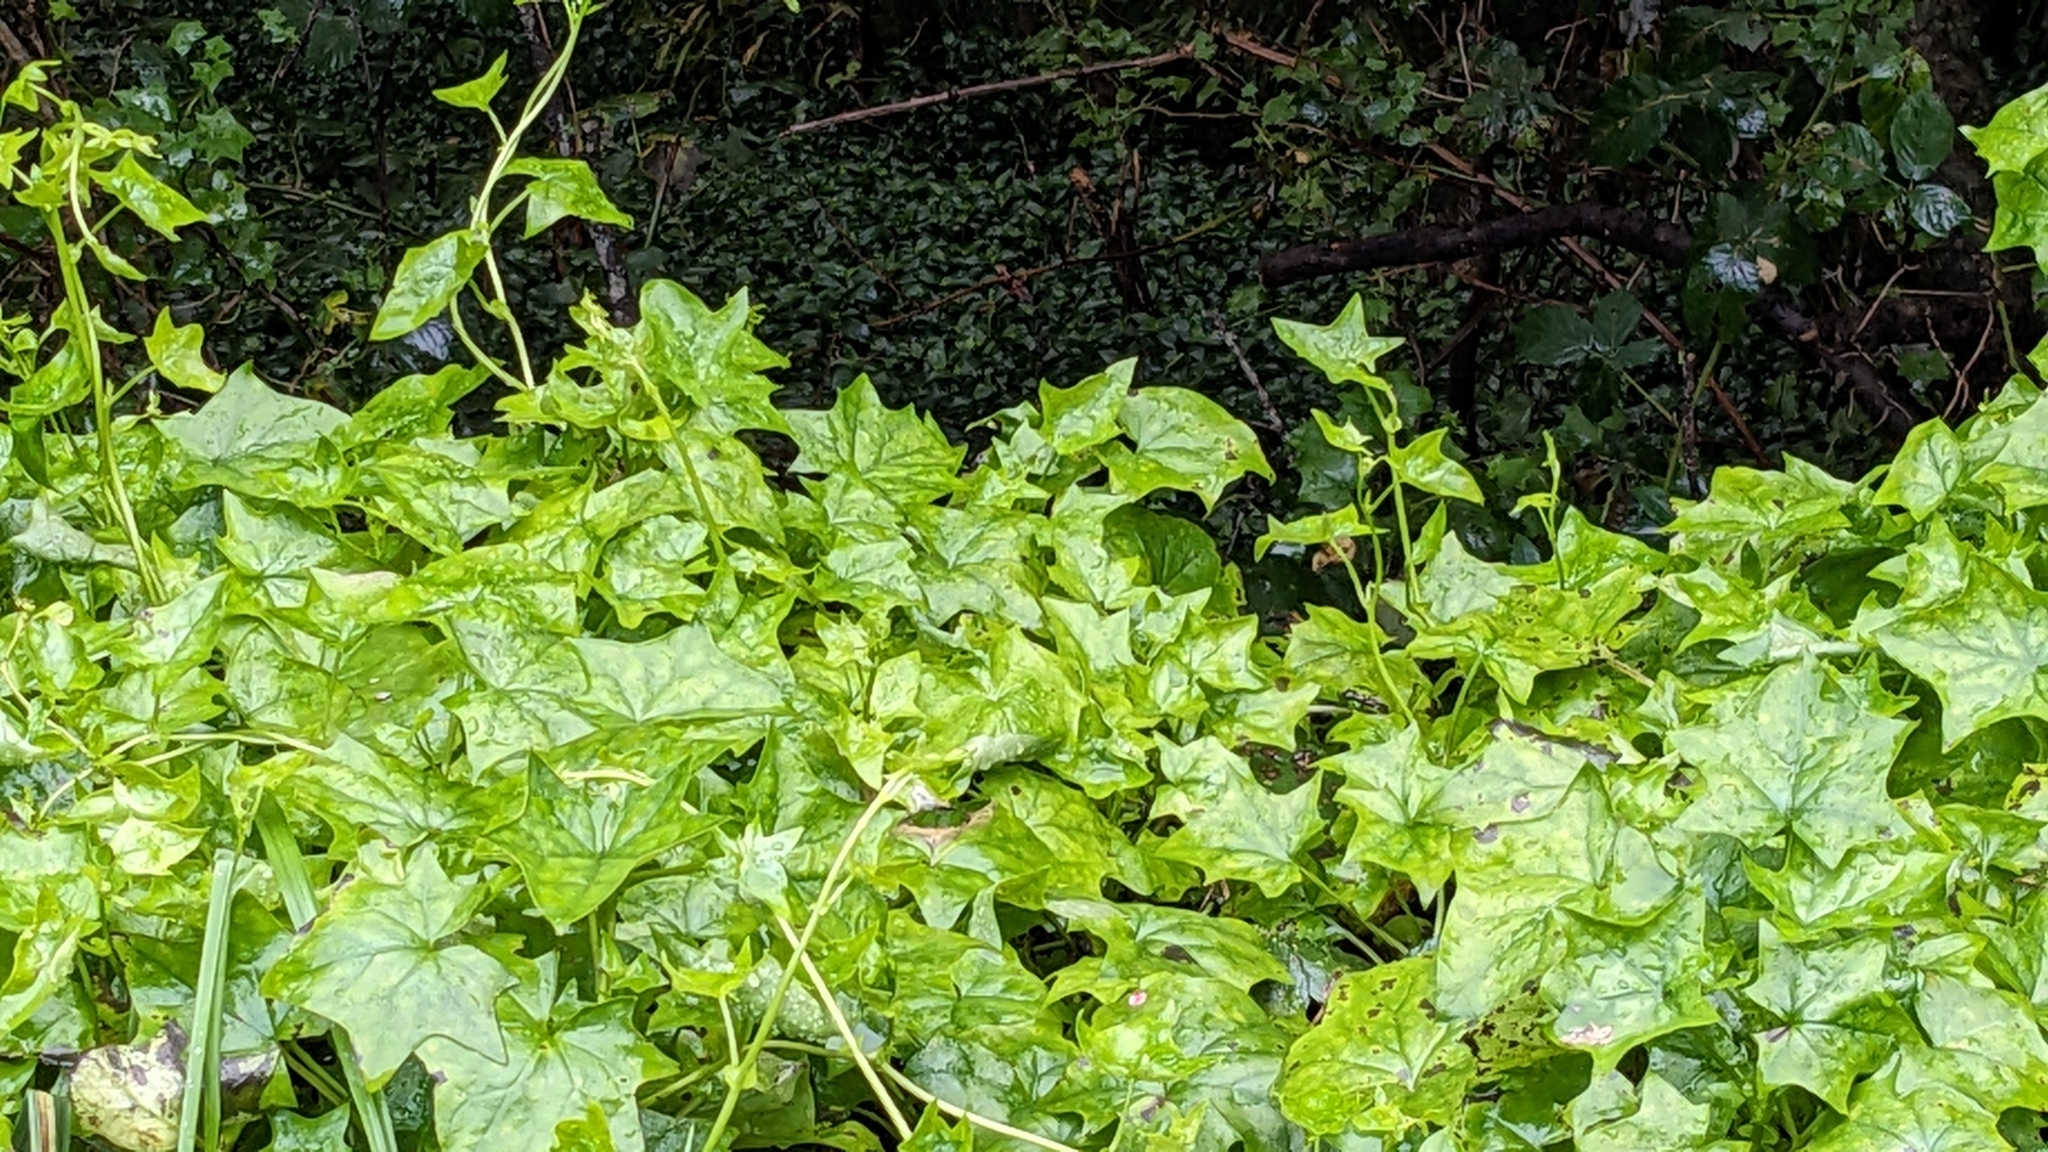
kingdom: Plantae
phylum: Tracheophyta
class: Magnoliopsida
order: Asterales
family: Asteraceae
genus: Delairea
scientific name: Delairea odorata
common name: Cape-ivy
